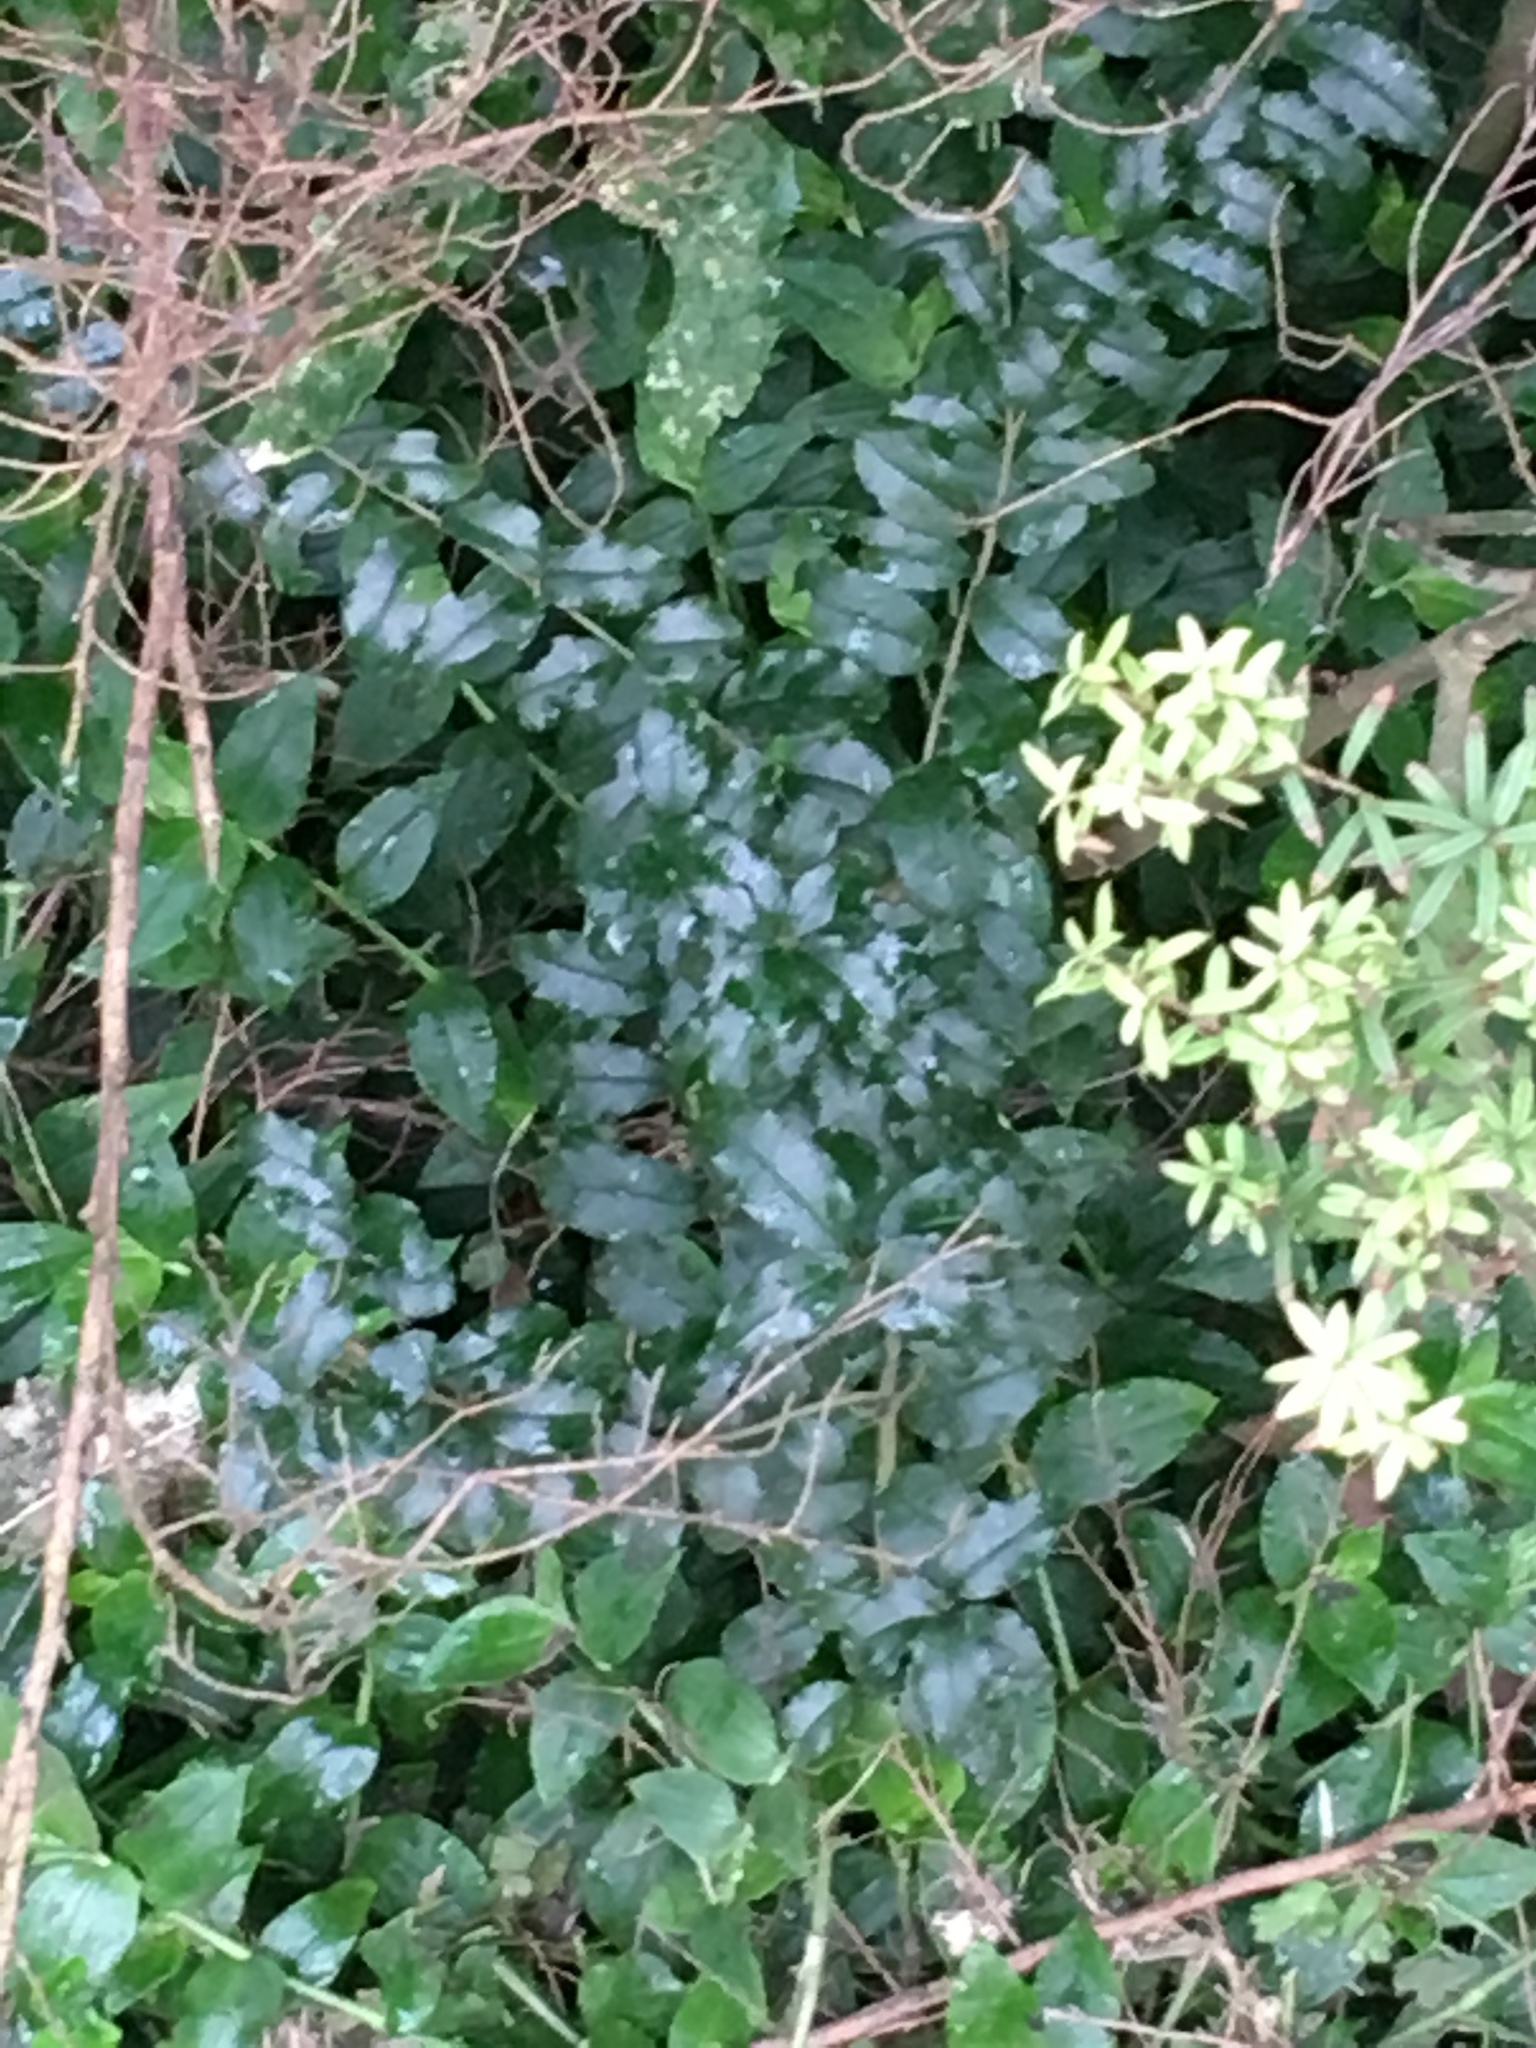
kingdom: Plantae
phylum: Tracheophyta
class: Magnoliopsida
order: Lamiales
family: Oleaceae
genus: Ligustrum
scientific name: Ligustrum sinense
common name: Chinese privet
